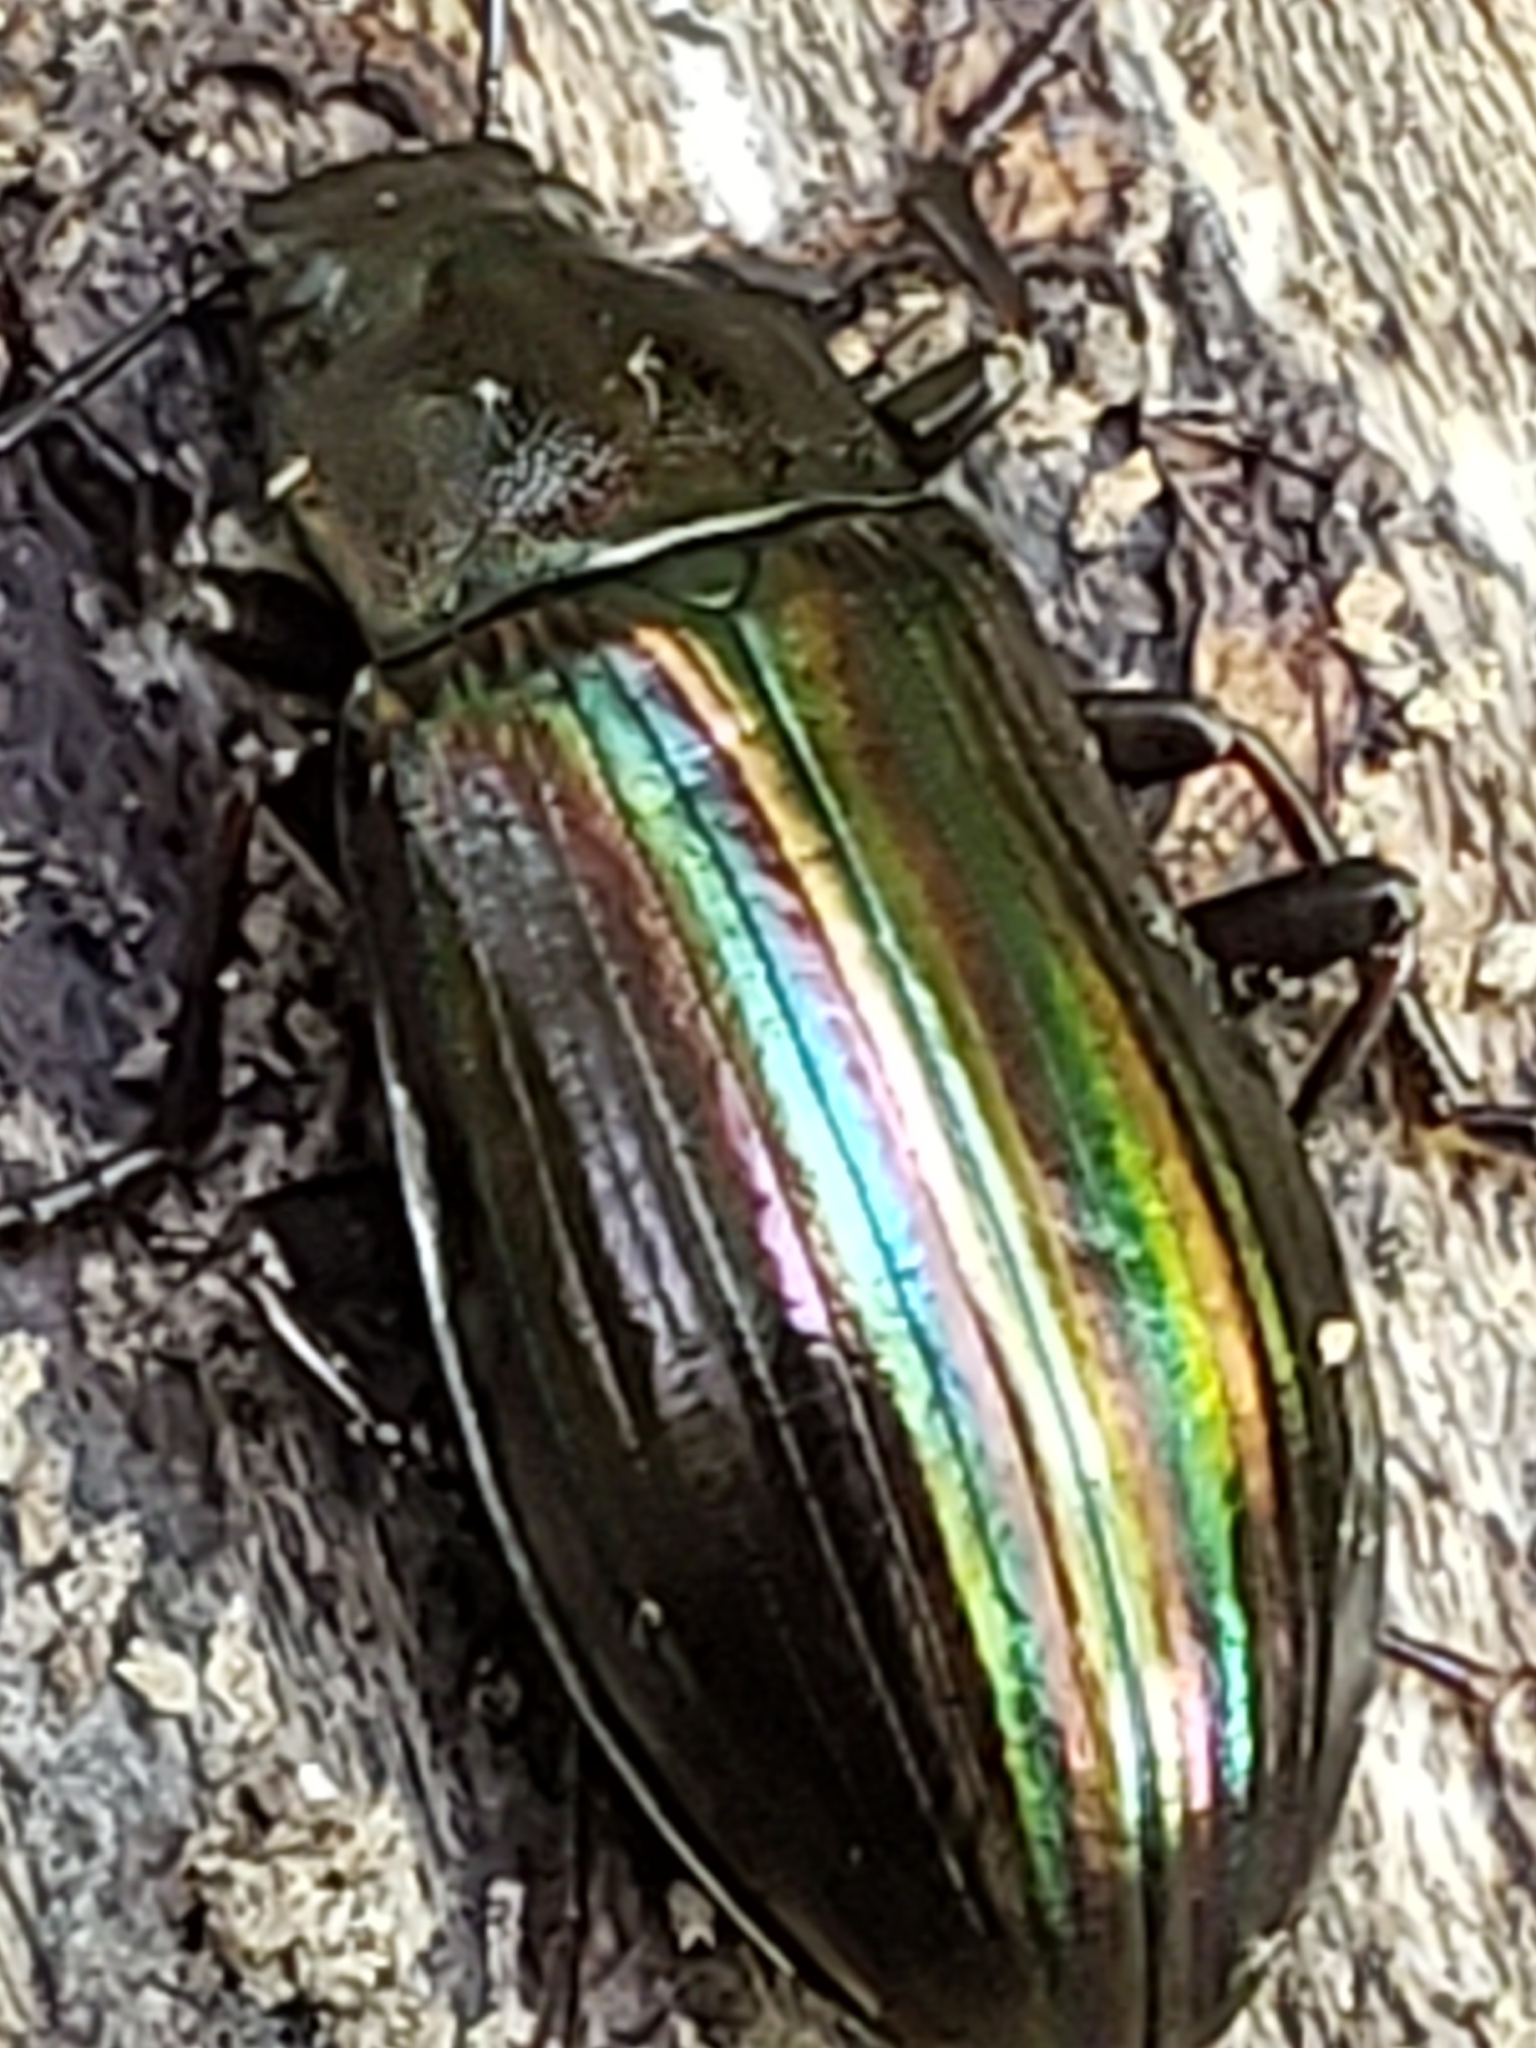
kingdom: Animalia
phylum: Arthropoda
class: Insecta
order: Coleoptera
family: Tenebrionidae
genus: Tarpela
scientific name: Tarpela micans
